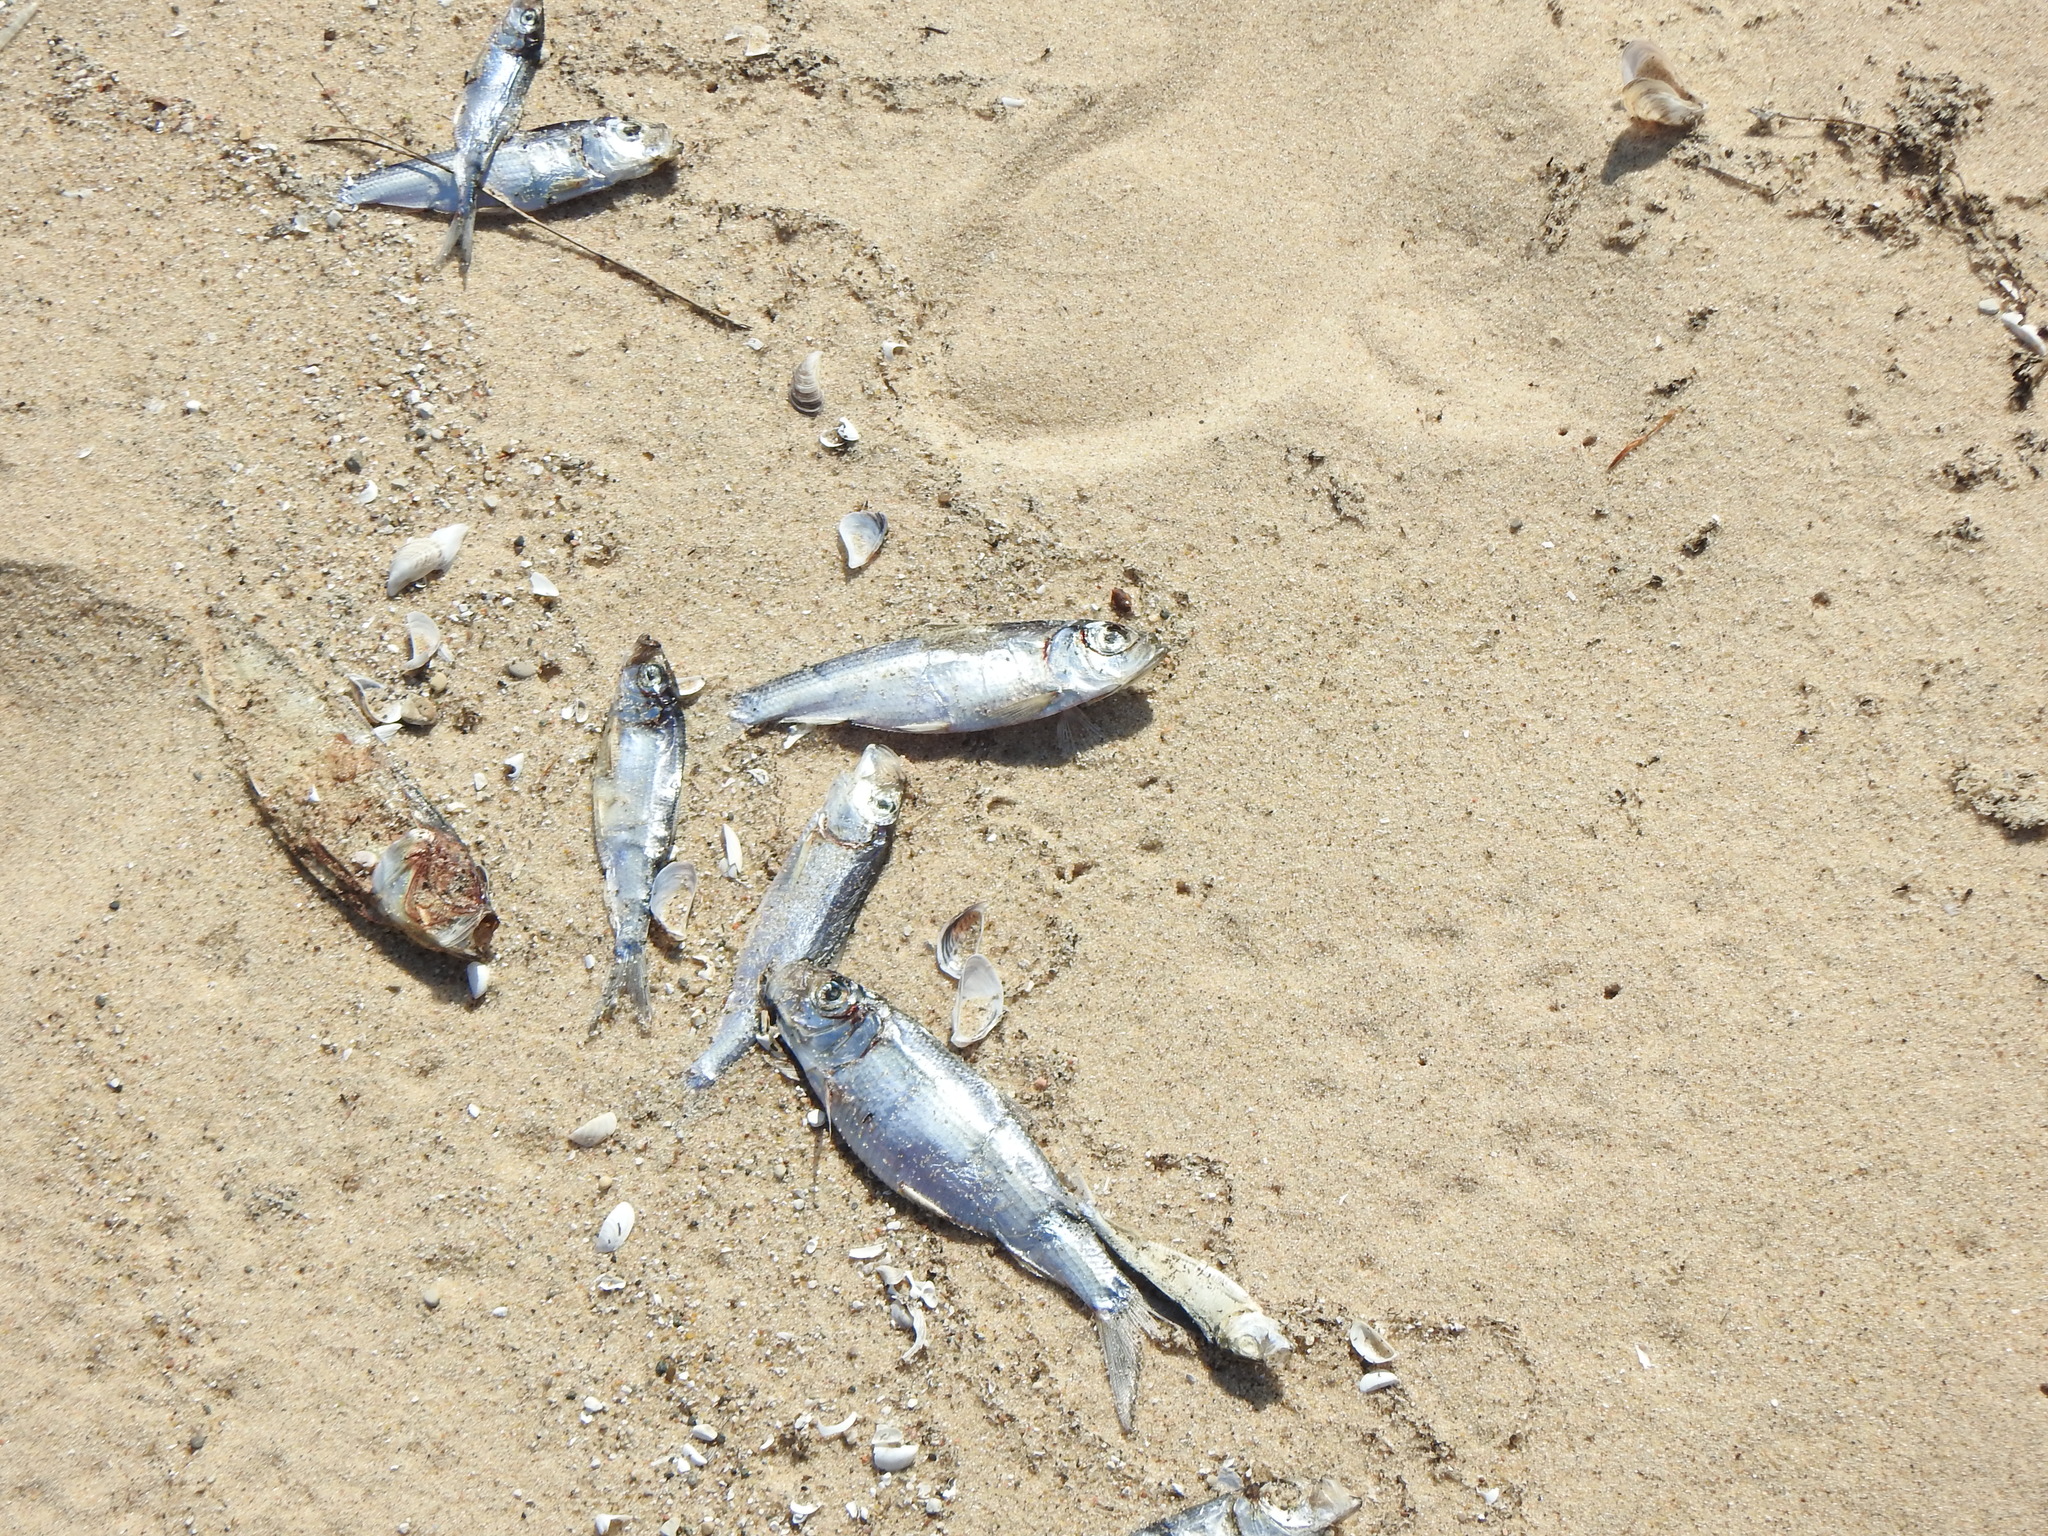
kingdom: Animalia
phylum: Chordata
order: Clupeiformes
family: Clupeidae
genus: Alosa
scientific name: Alosa pseudoharengus
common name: Alewife
